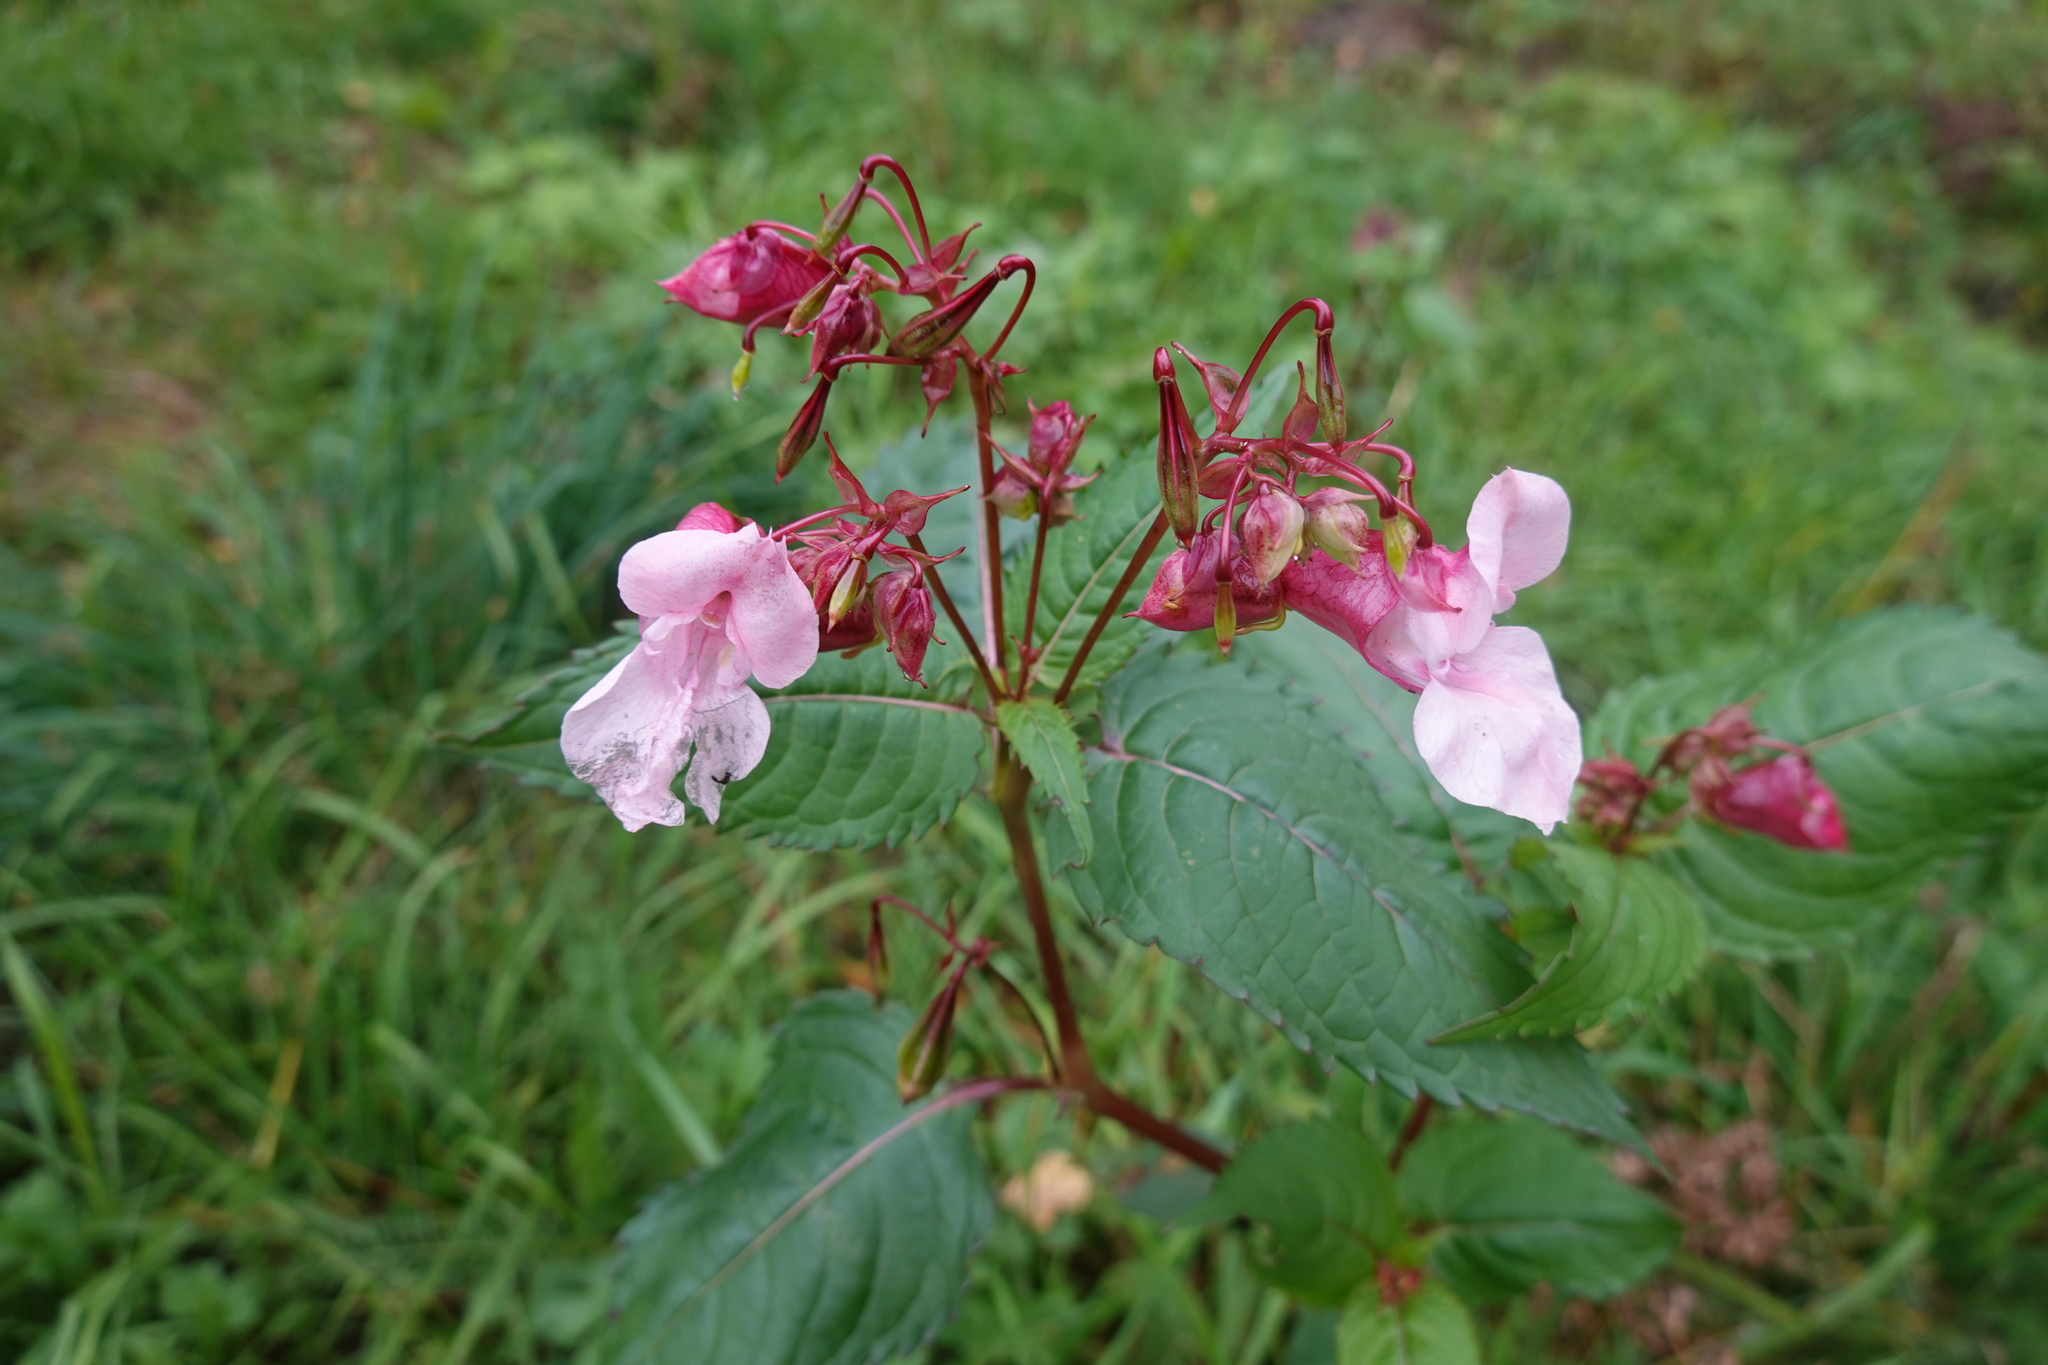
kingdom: Plantae
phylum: Tracheophyta
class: Magnoliopsida
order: Ericales
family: Balsaminaceae
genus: Impatiens
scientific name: Impatiens glandulifera
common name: Himalayan balsam
